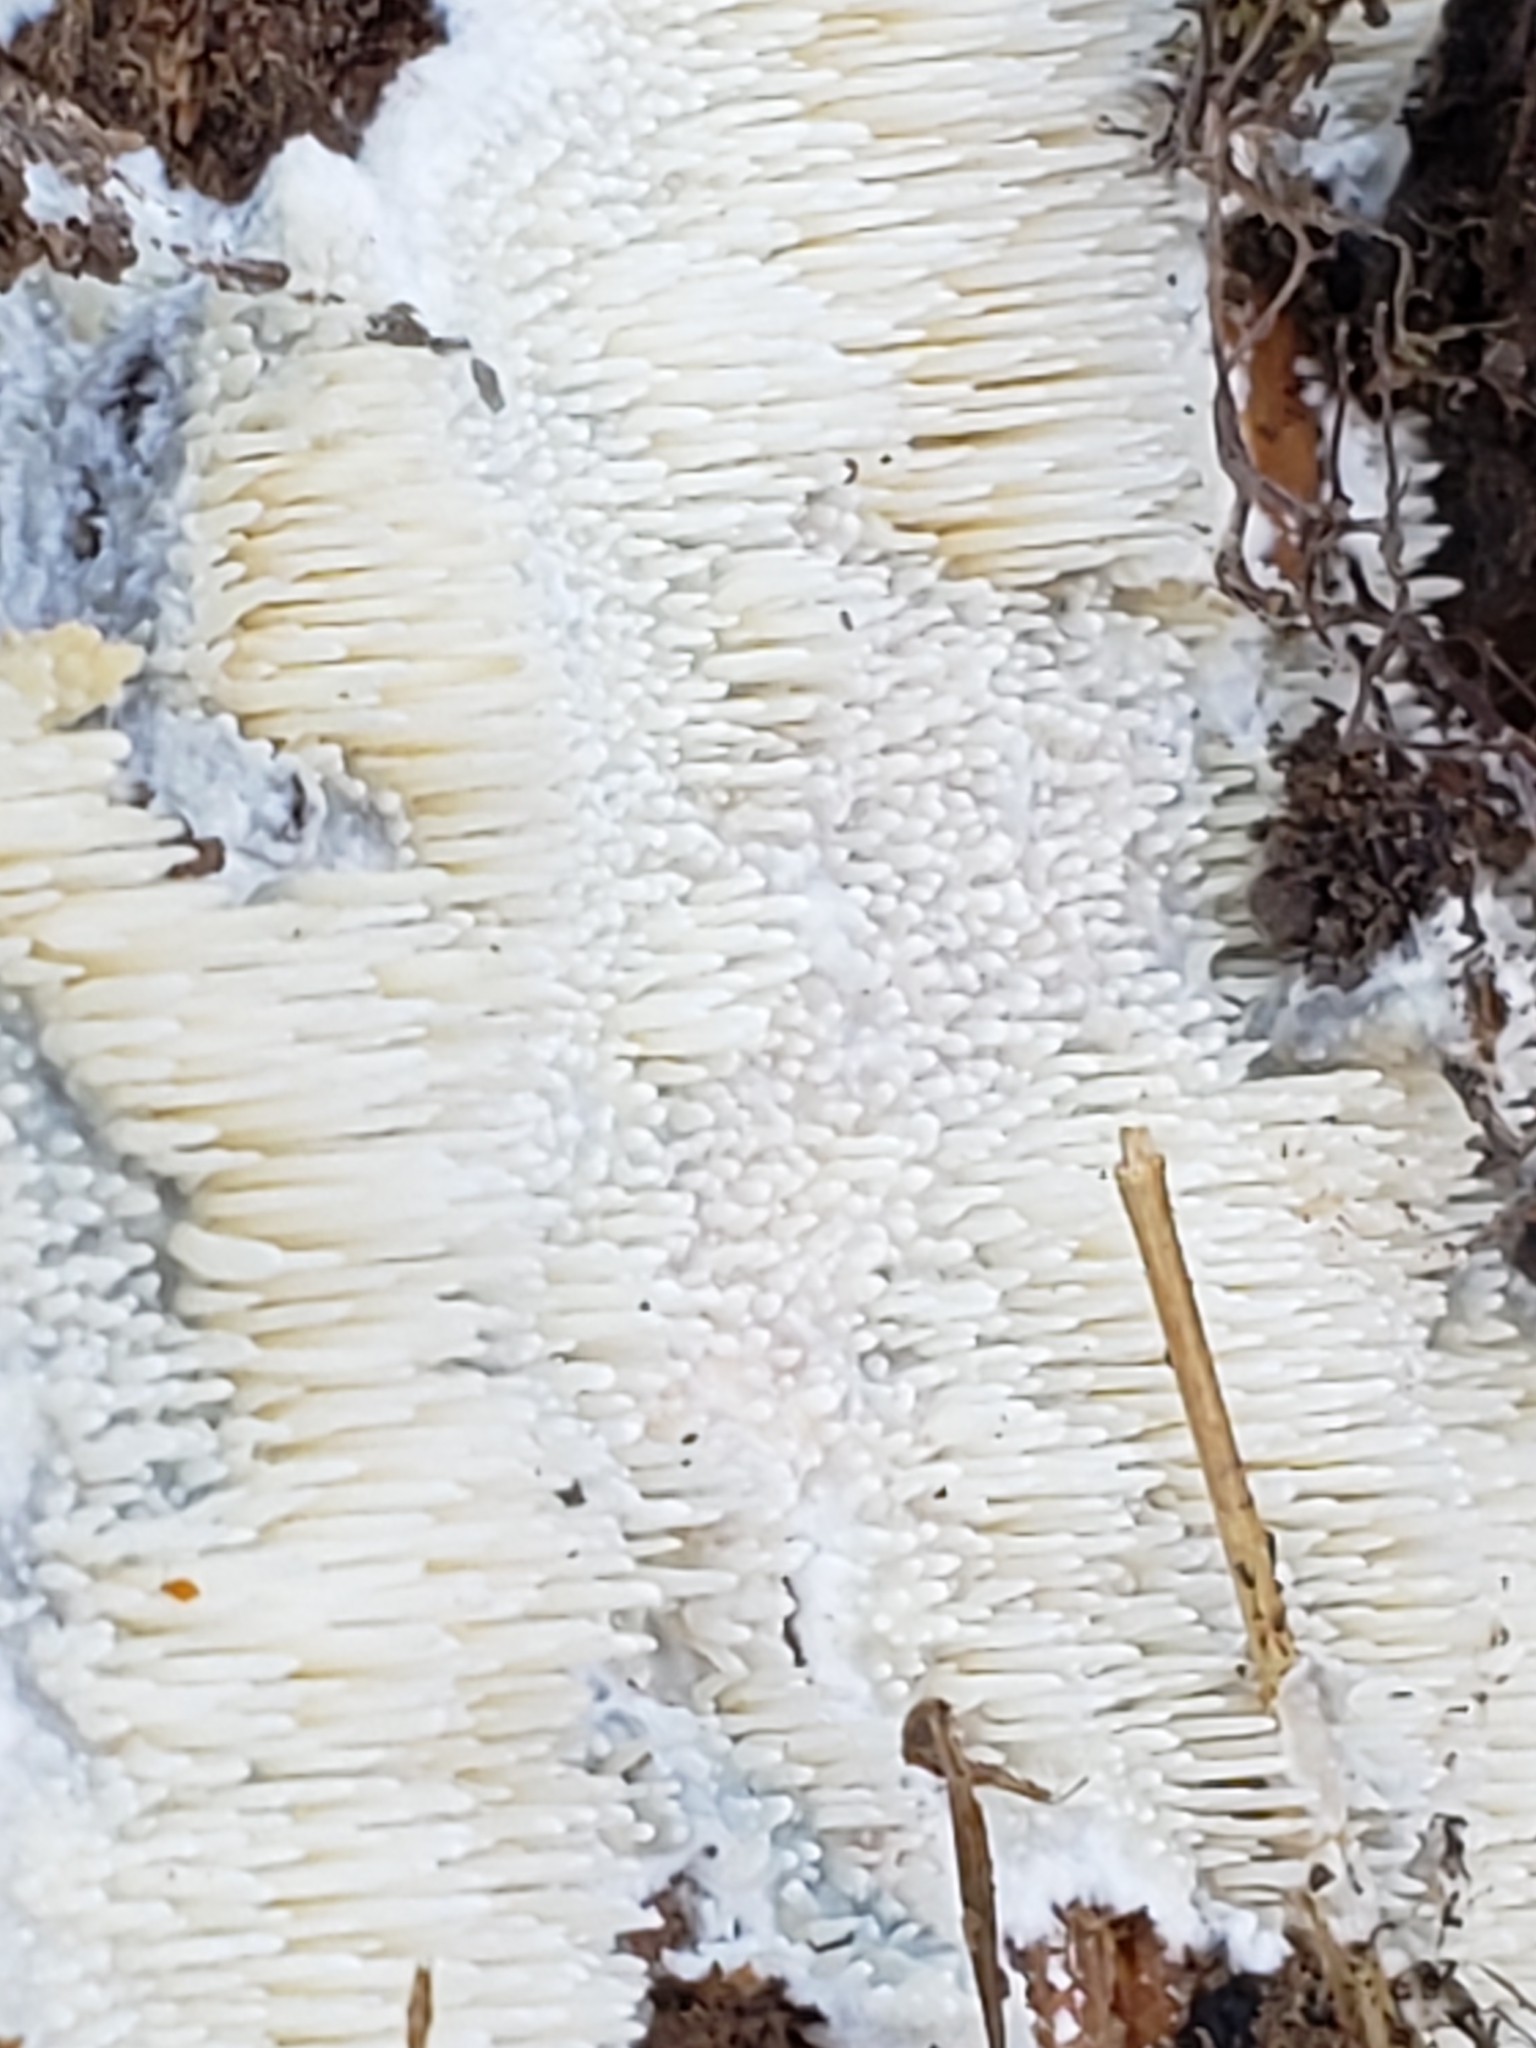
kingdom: Fungi
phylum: Basidiomycota
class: Agaricomycetes
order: Agaricales
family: Radulomycetaceae
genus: Radulomyces
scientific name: Radulomyces copelandii
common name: Asian beauty
